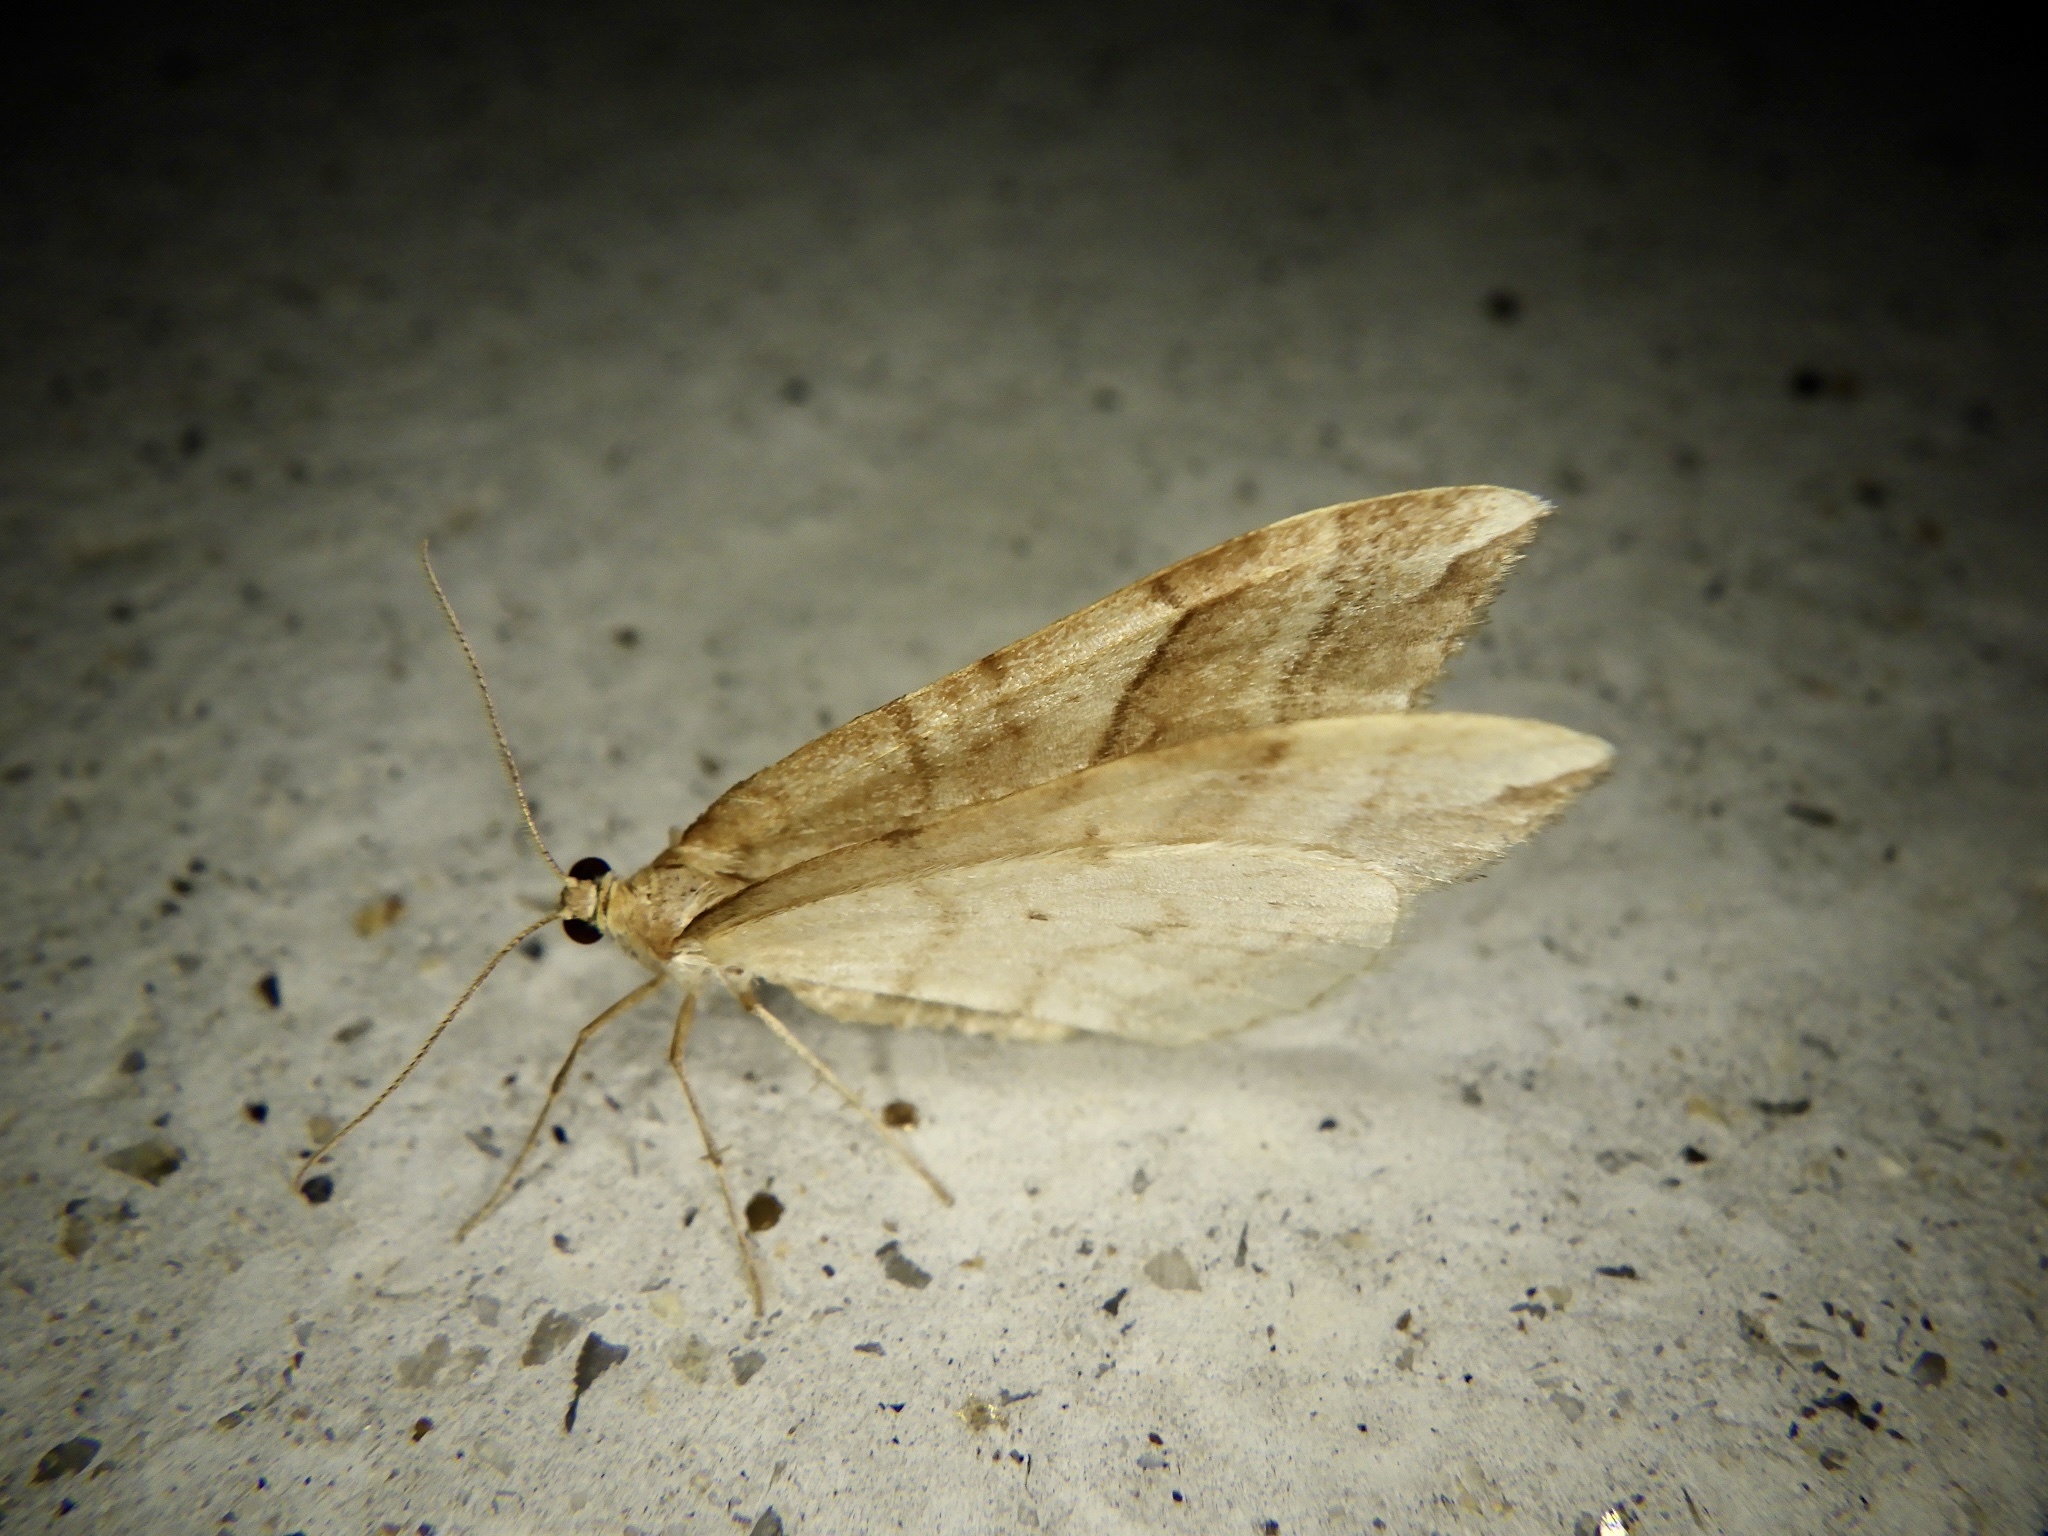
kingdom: Animalia
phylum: Arthropoda
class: Insecta
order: Lepidoptera
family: Geometridae
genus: Nothoporinia
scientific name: Nothoporinia mediolineata
